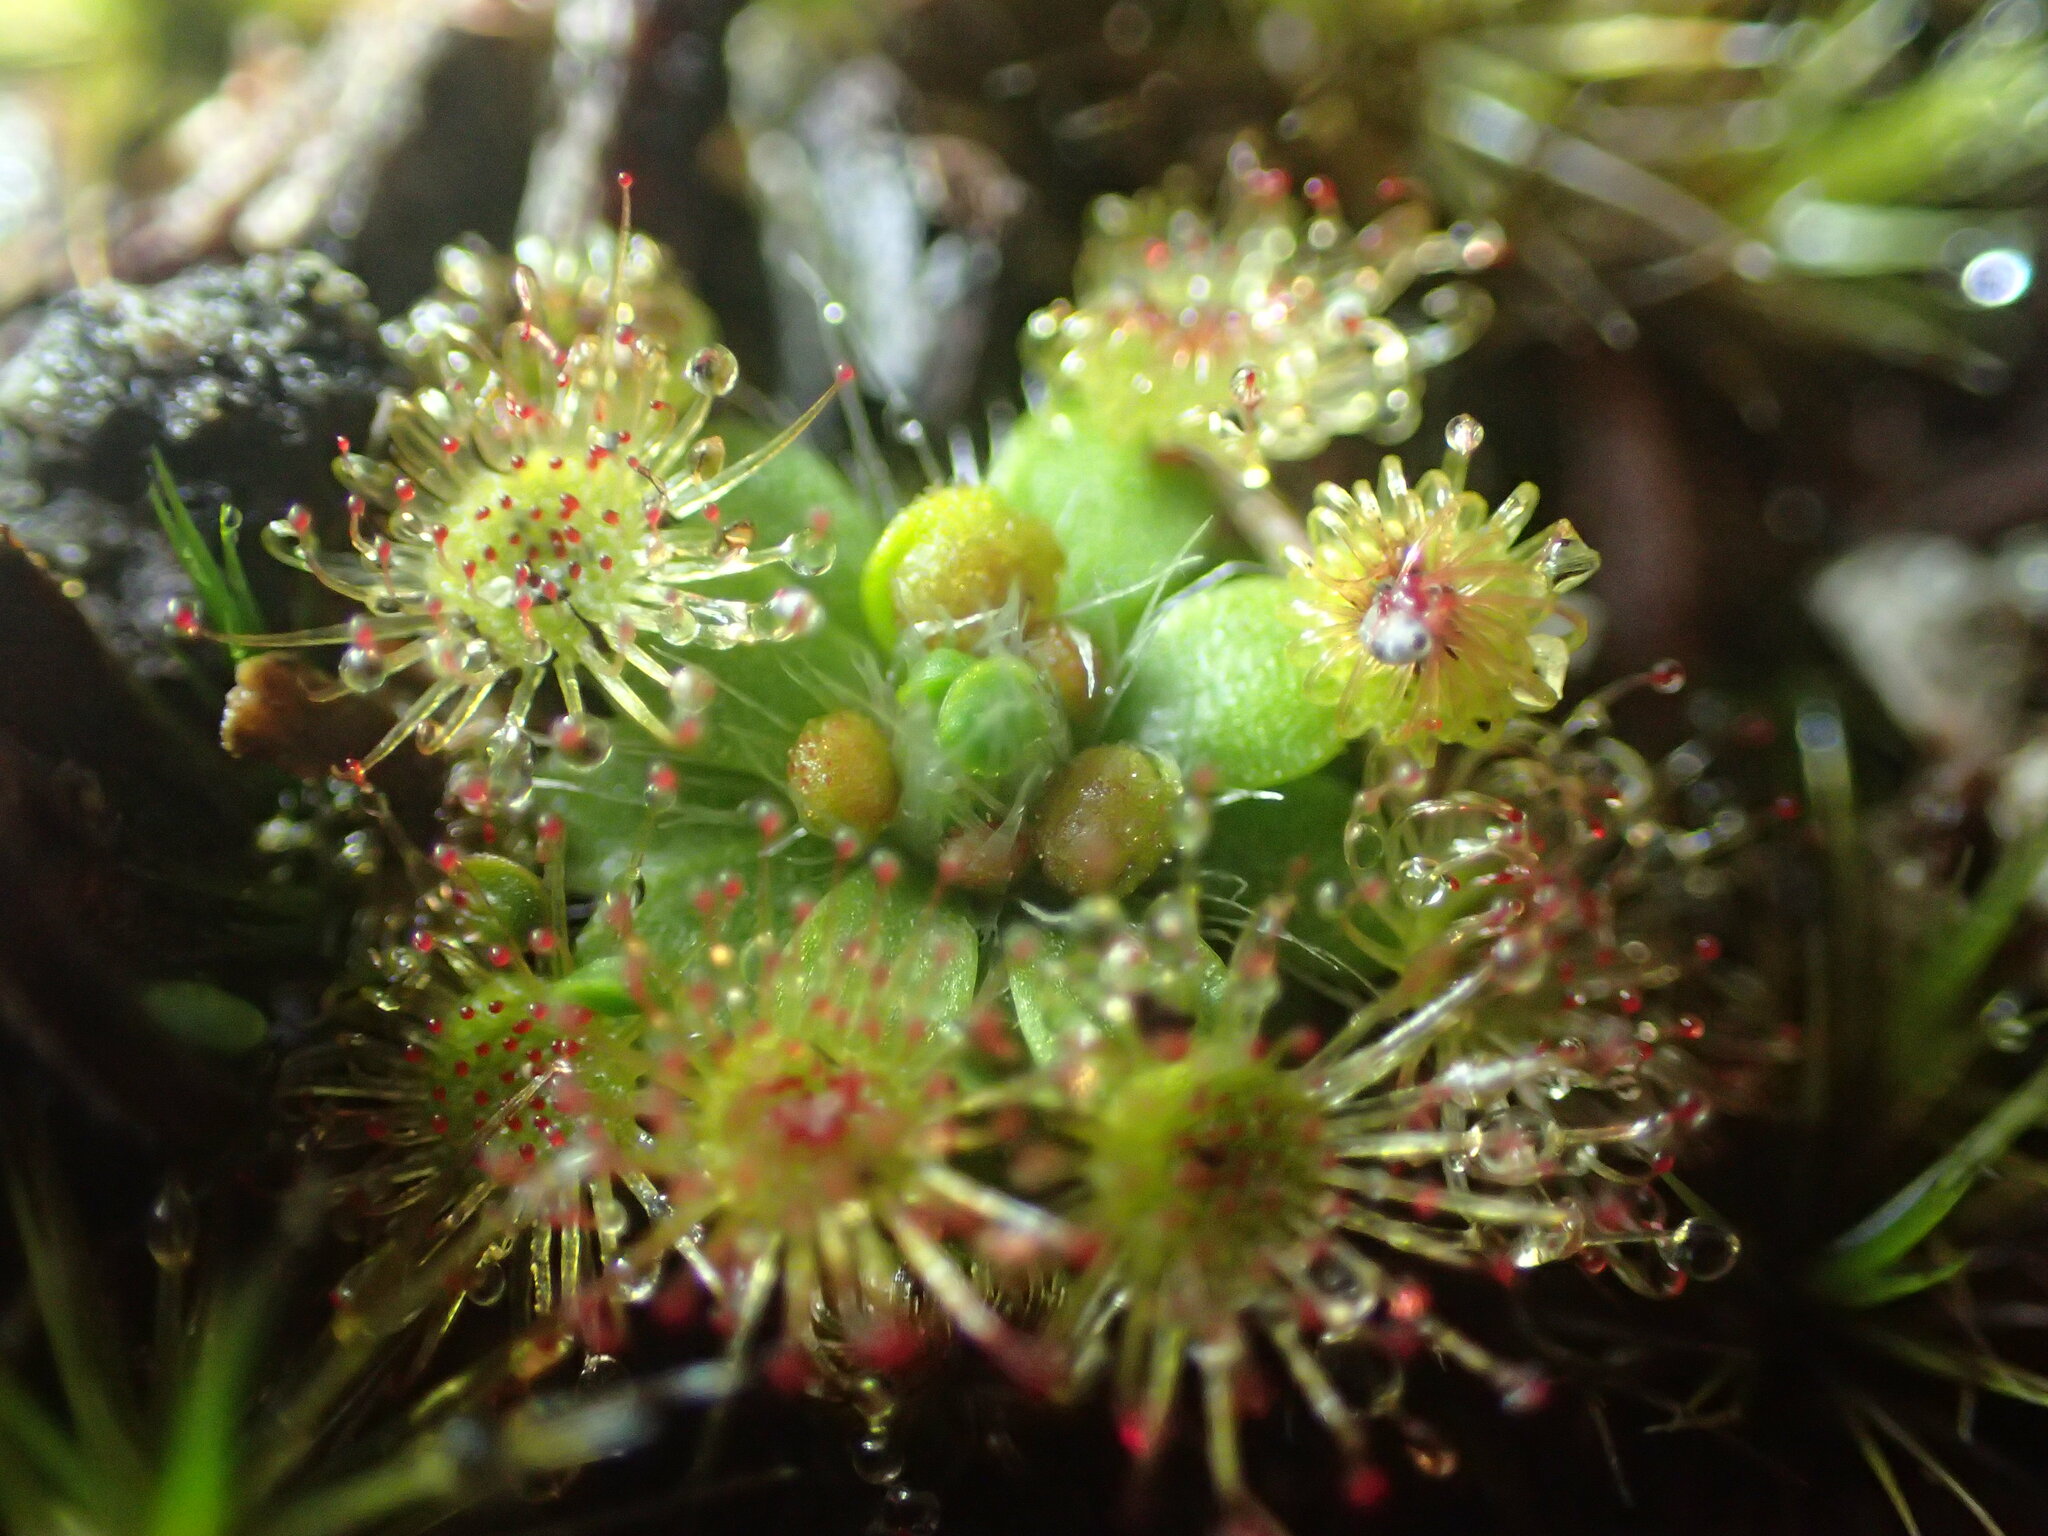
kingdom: Plantae
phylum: Tracheophyta
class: Magnoliopsida
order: Caryophyllales
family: Droseraceae
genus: Drosera
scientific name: Drosera pulchella
